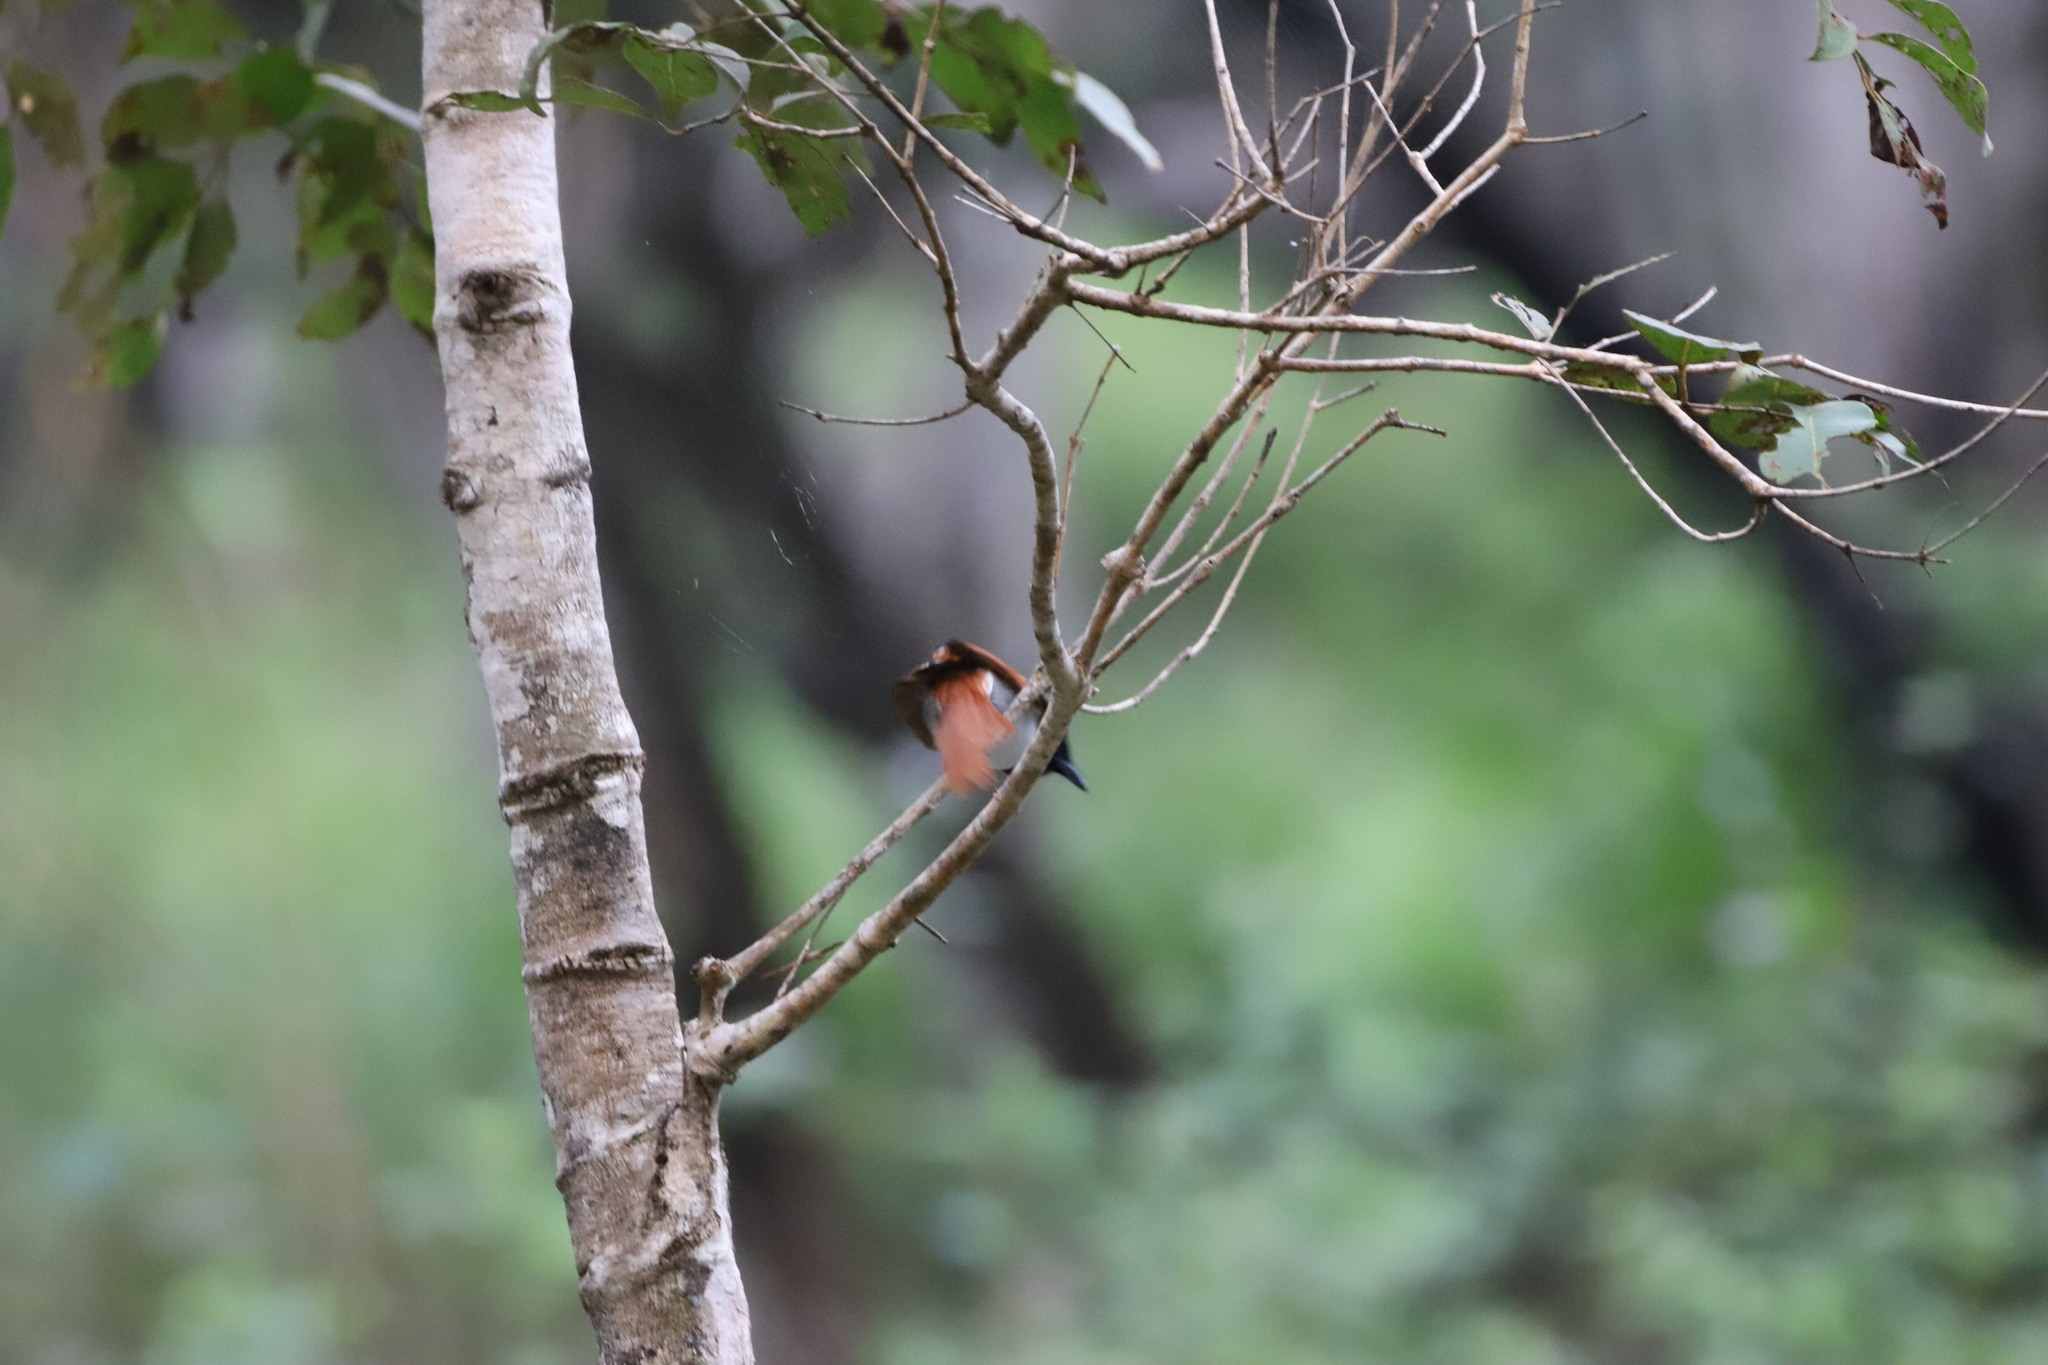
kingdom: Animalia
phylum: Chordata
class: Aves
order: Passeriformes
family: Monarchidae
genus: Terpsiphone
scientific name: Terpsiphone paradisi
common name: Indian paradise flycatcher
